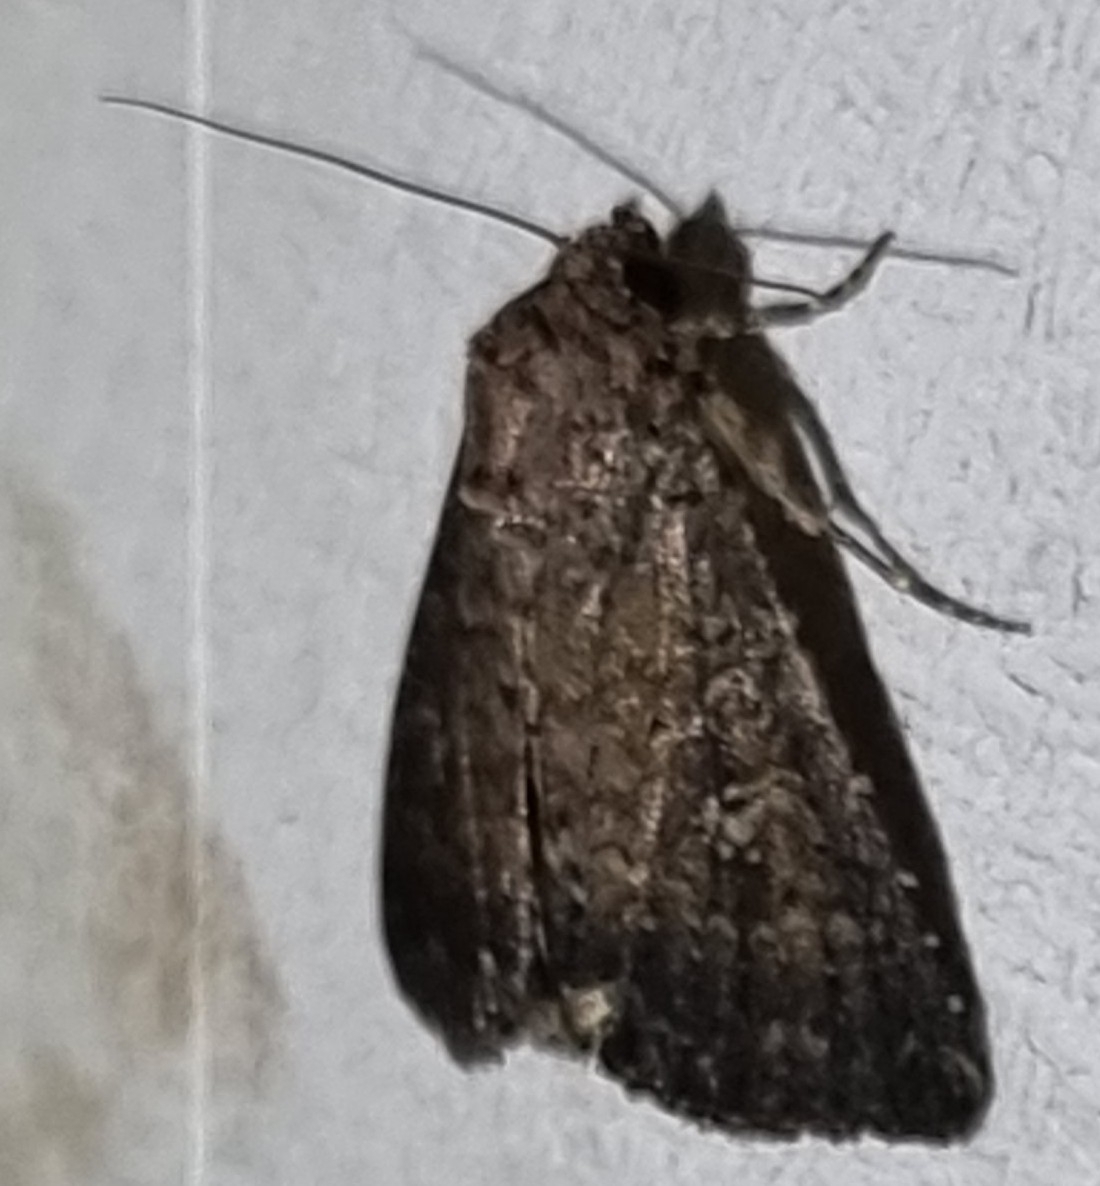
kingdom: Animalia
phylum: Arthropoda
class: Insecta
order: Lepidoptera
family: Noctuidae
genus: Condica
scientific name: Condica illecta
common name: Cutworm
